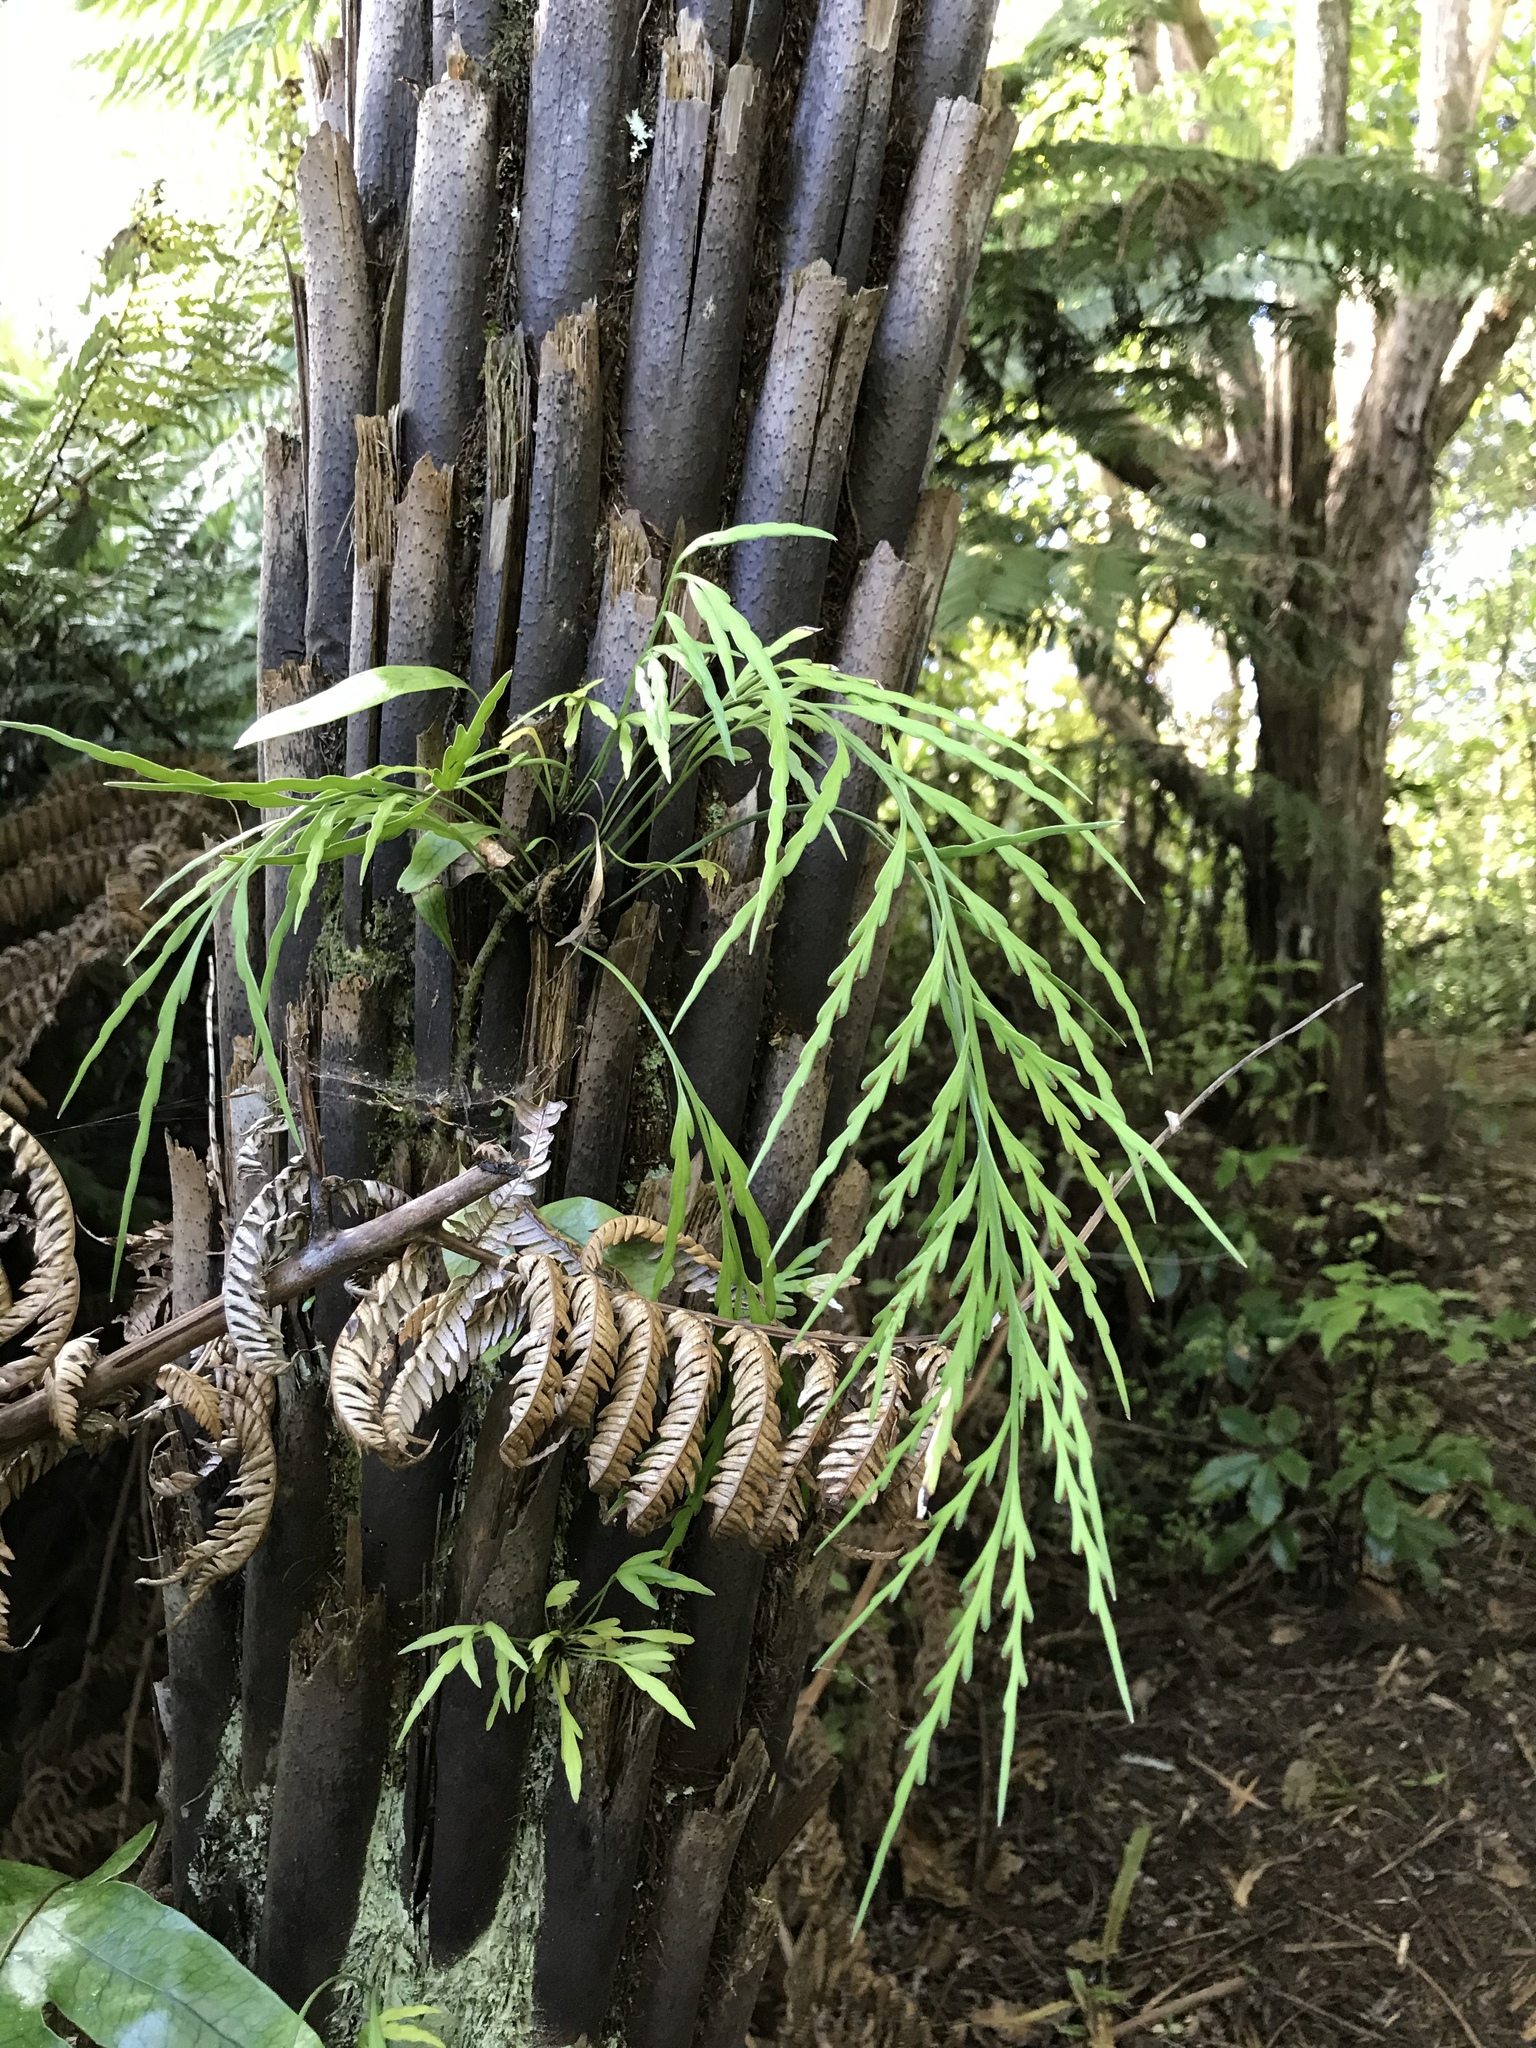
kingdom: Plantae
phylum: Tracheophyta
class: Polypodiopsida
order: Polypodiales
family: Aspleniaceae
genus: Asplenium
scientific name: Asplenium flaccidum
